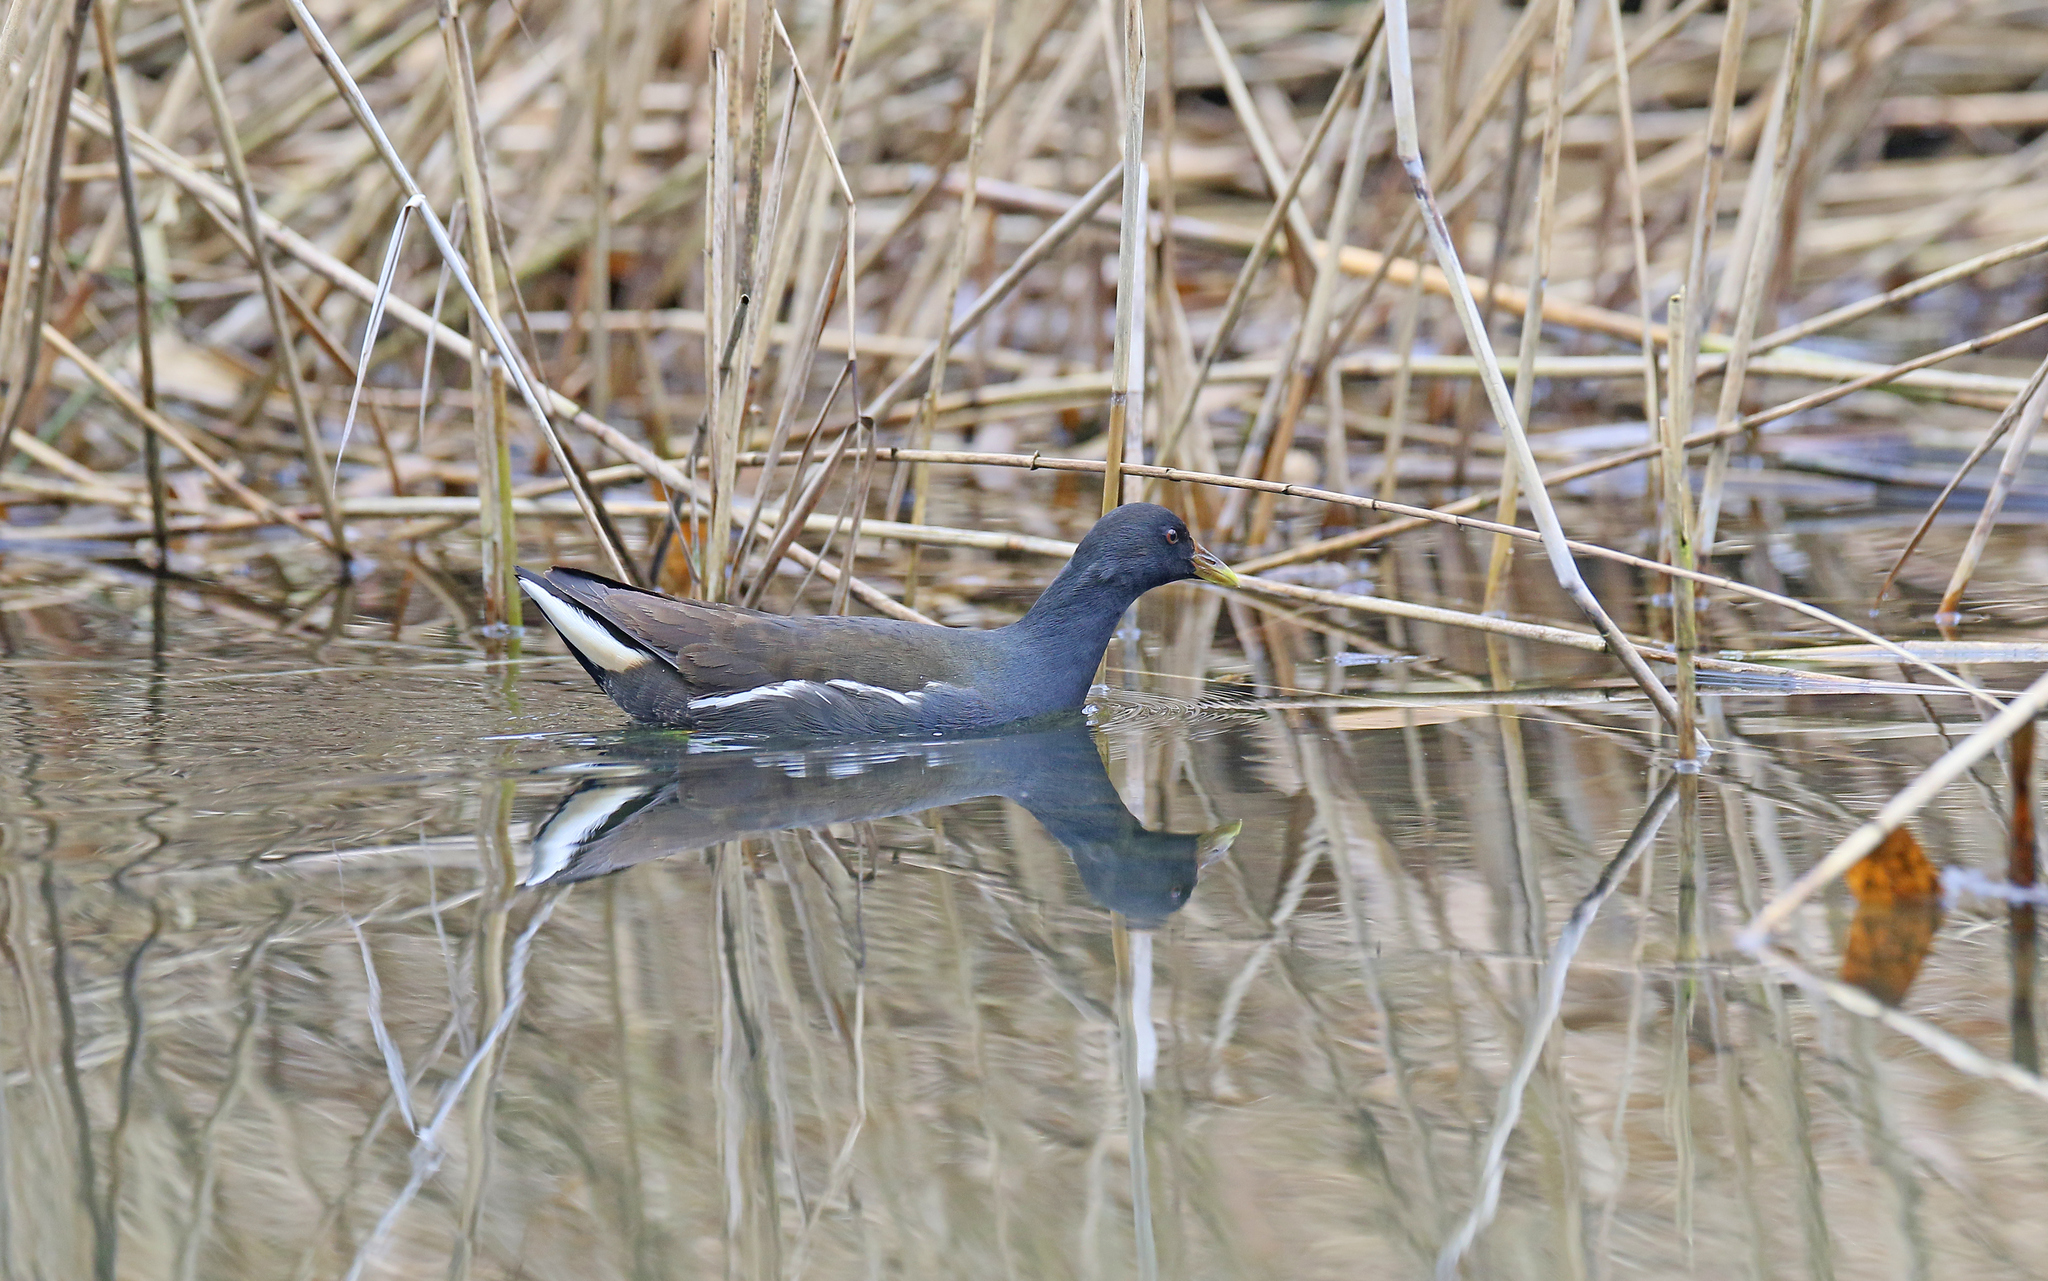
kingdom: Animalia
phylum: Chordata
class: Aves
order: Gruiformes
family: Rallidae
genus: Gallinula
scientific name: Gallinula chloropus
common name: Common moorhen
